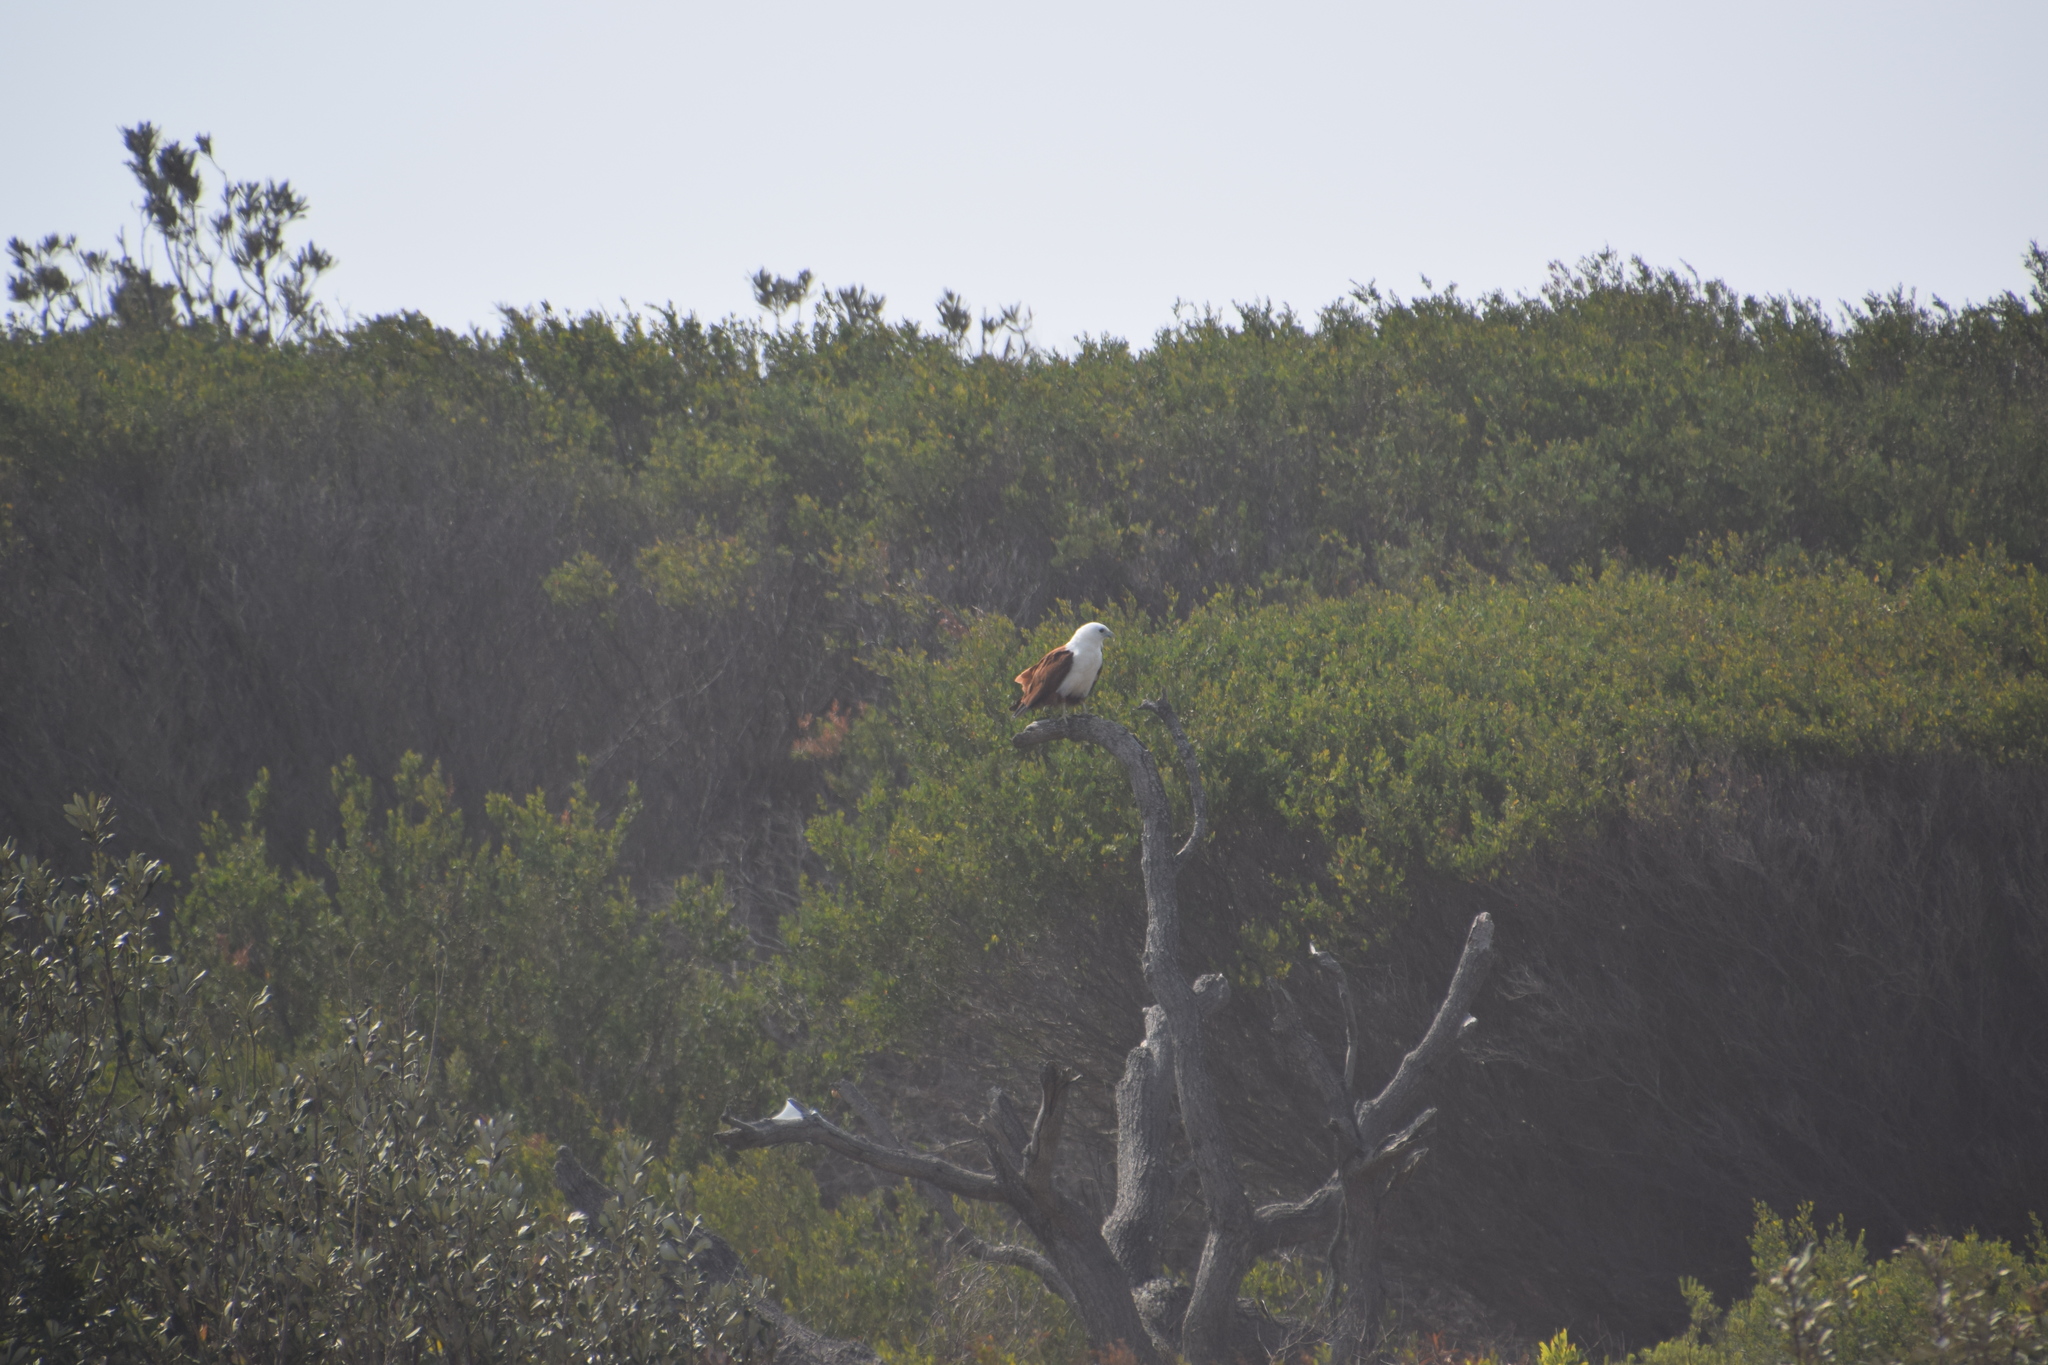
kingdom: Animalia
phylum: Chordata
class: Aves
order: Accipitriformes
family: Accipitridae
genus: Haliastur
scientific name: Haliastur indus
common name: Brahminy kite
